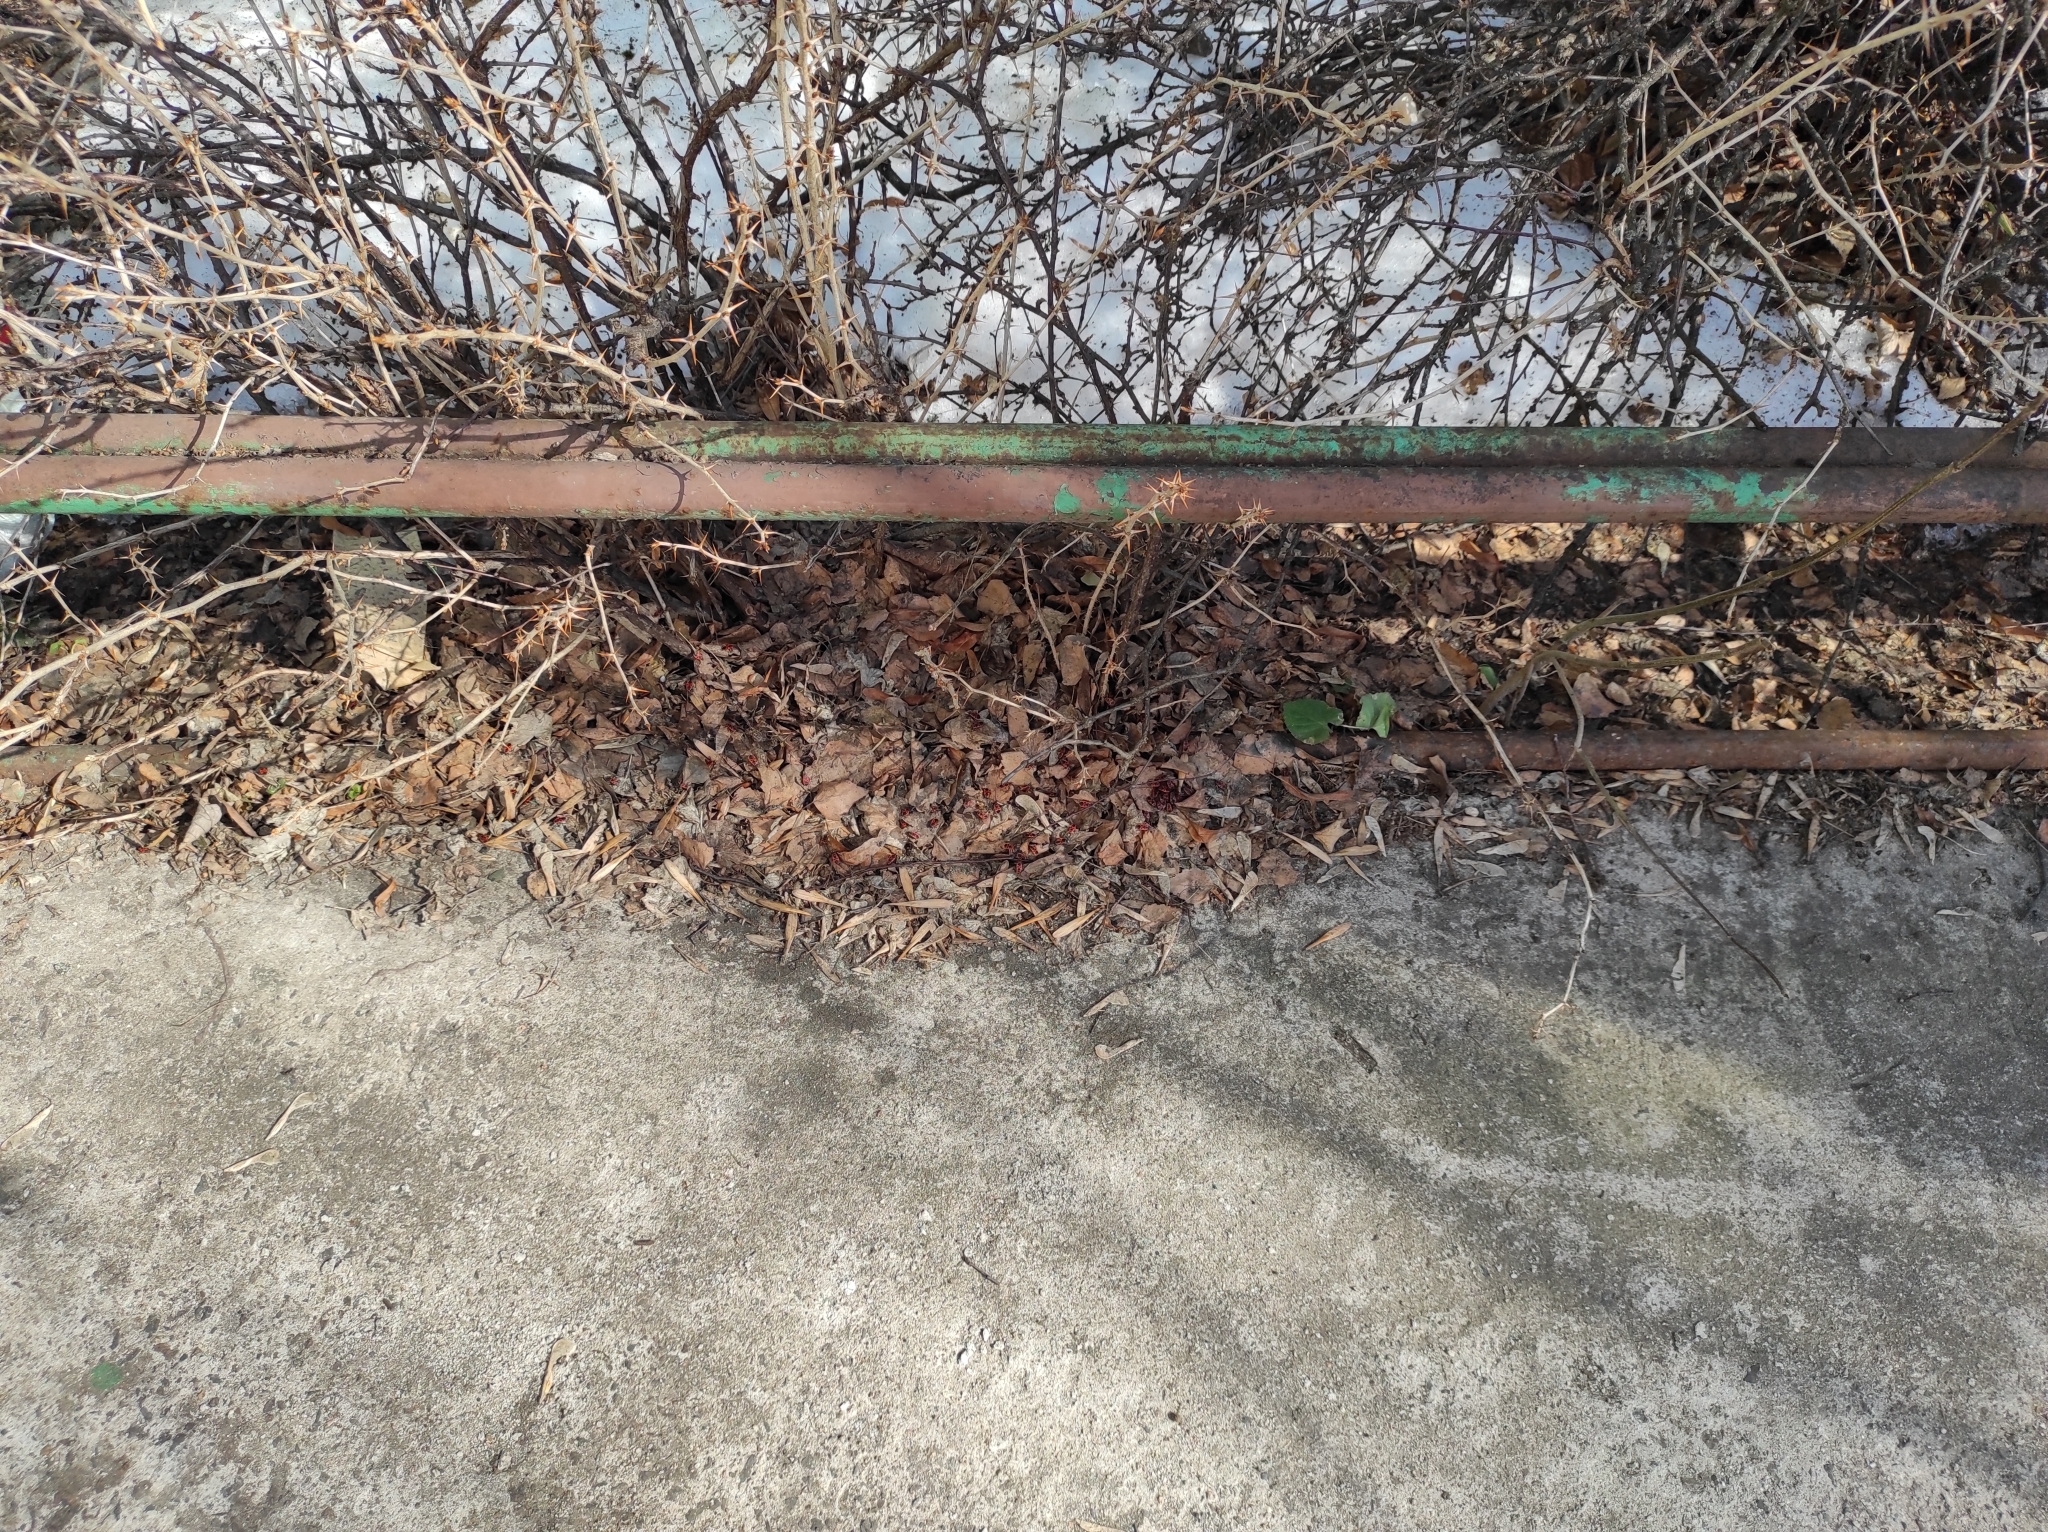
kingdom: Animalia
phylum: Arthropoda
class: Insecta
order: Hemiptera
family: Pyrrhocoridae
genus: Pyrrhocoris
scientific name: Pyrrhocoris apterus
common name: Firebug
